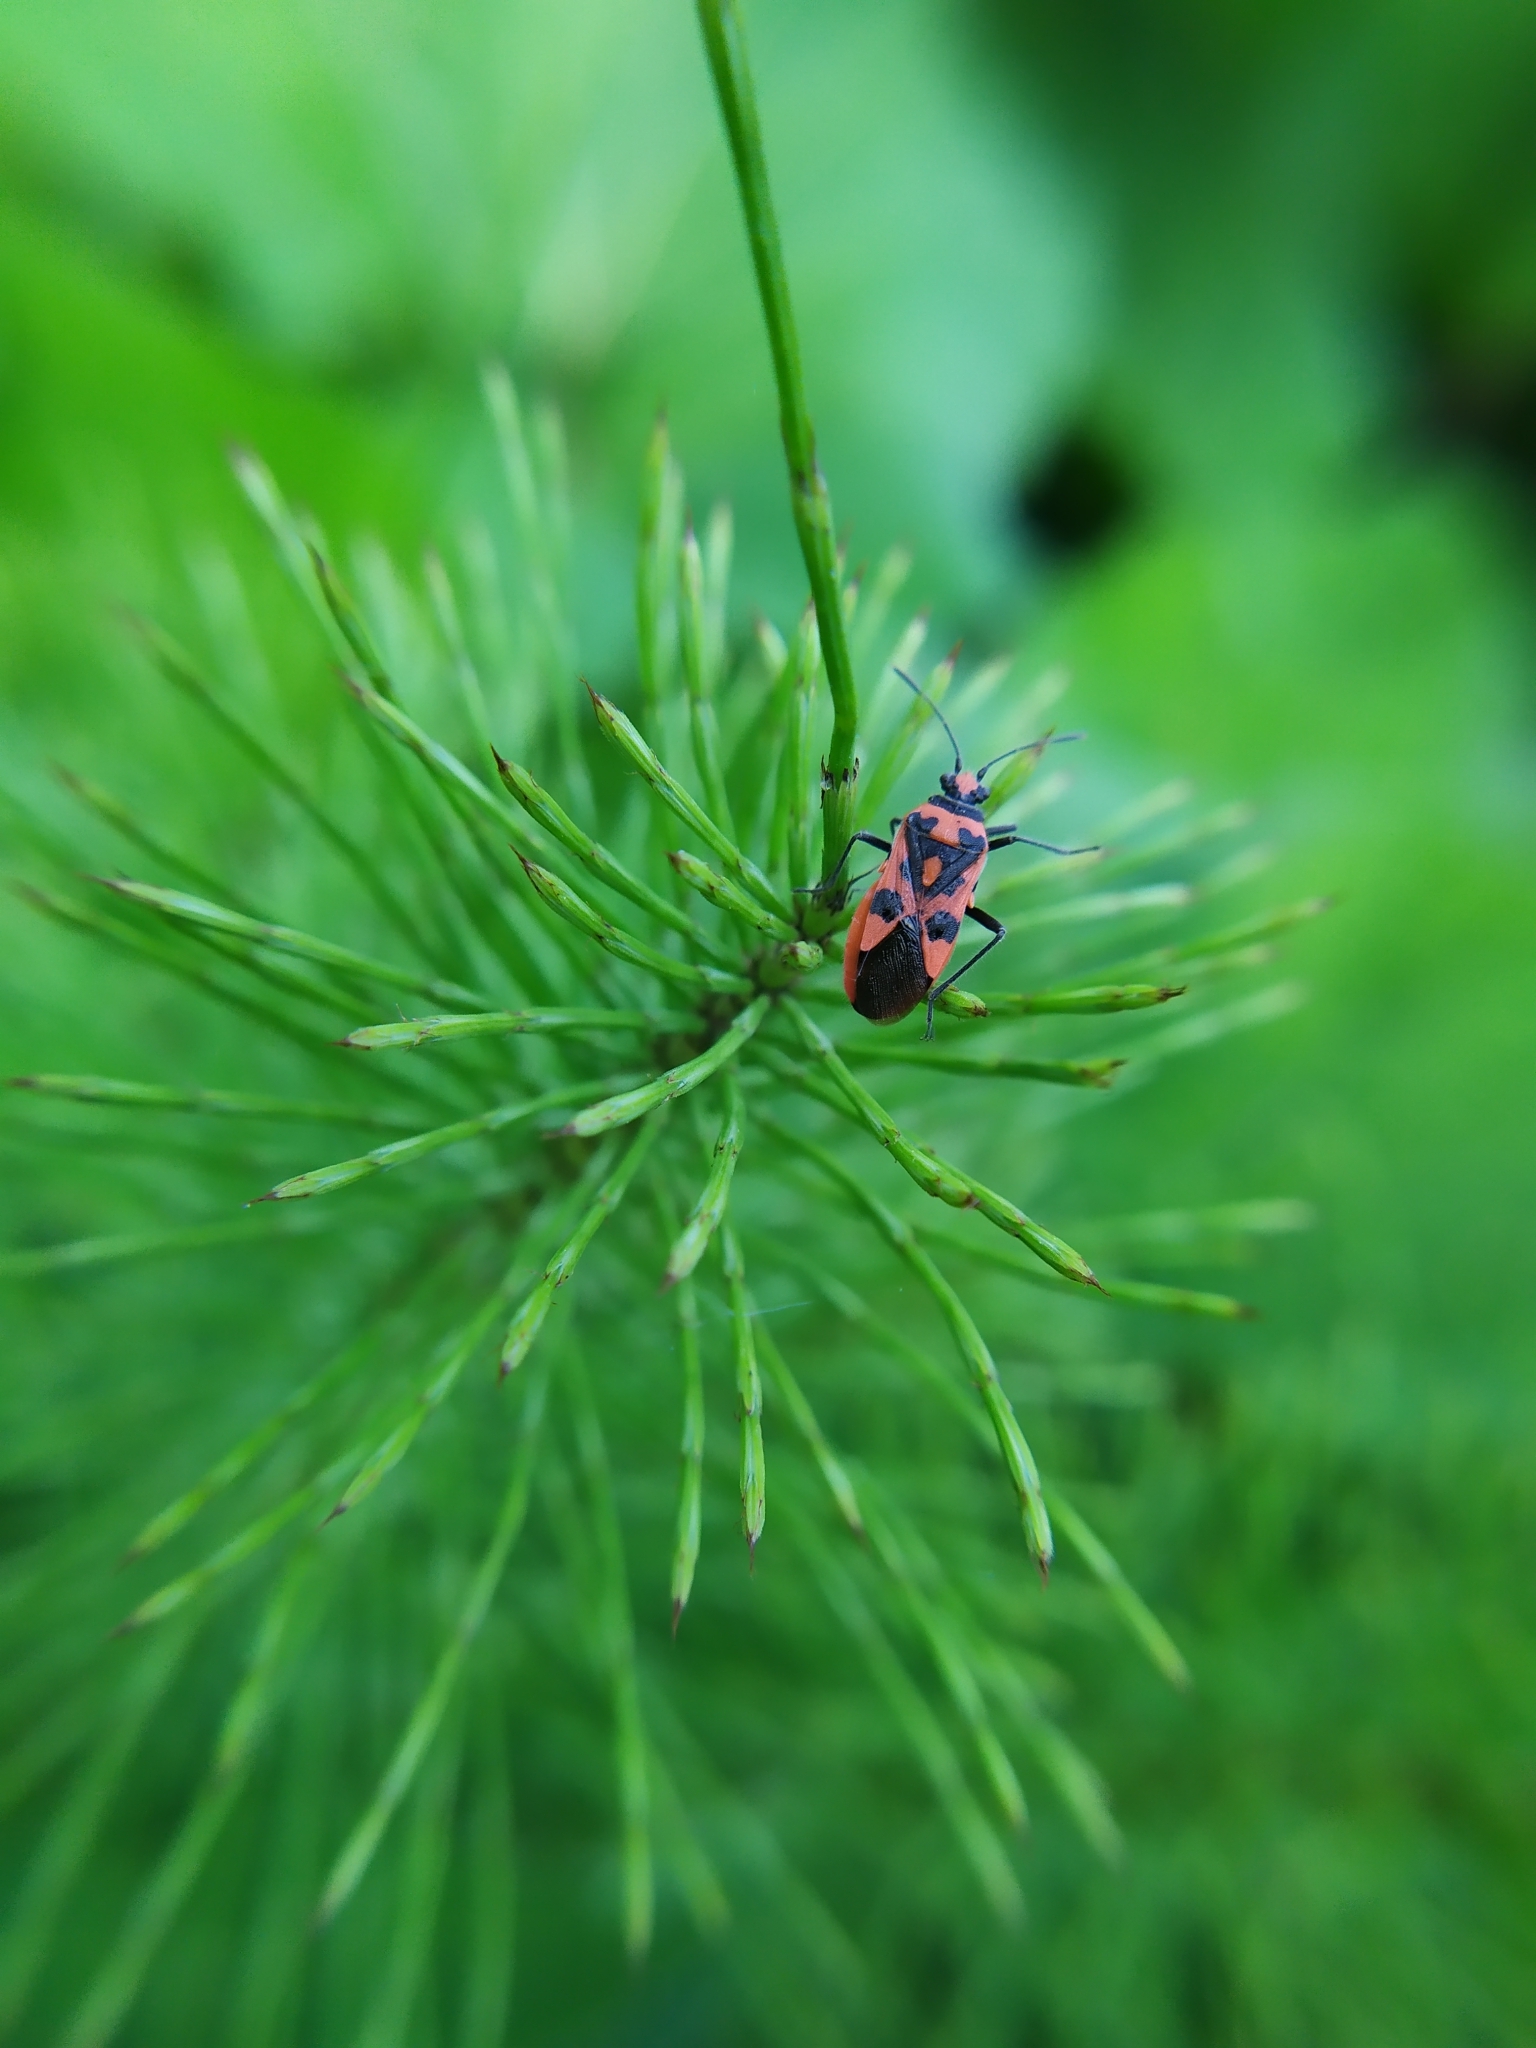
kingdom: Animalia
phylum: Arthropoda
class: Insecta
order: Hemiptera
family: Rhopalidae
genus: Corizus
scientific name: Corizus hyoscyami
